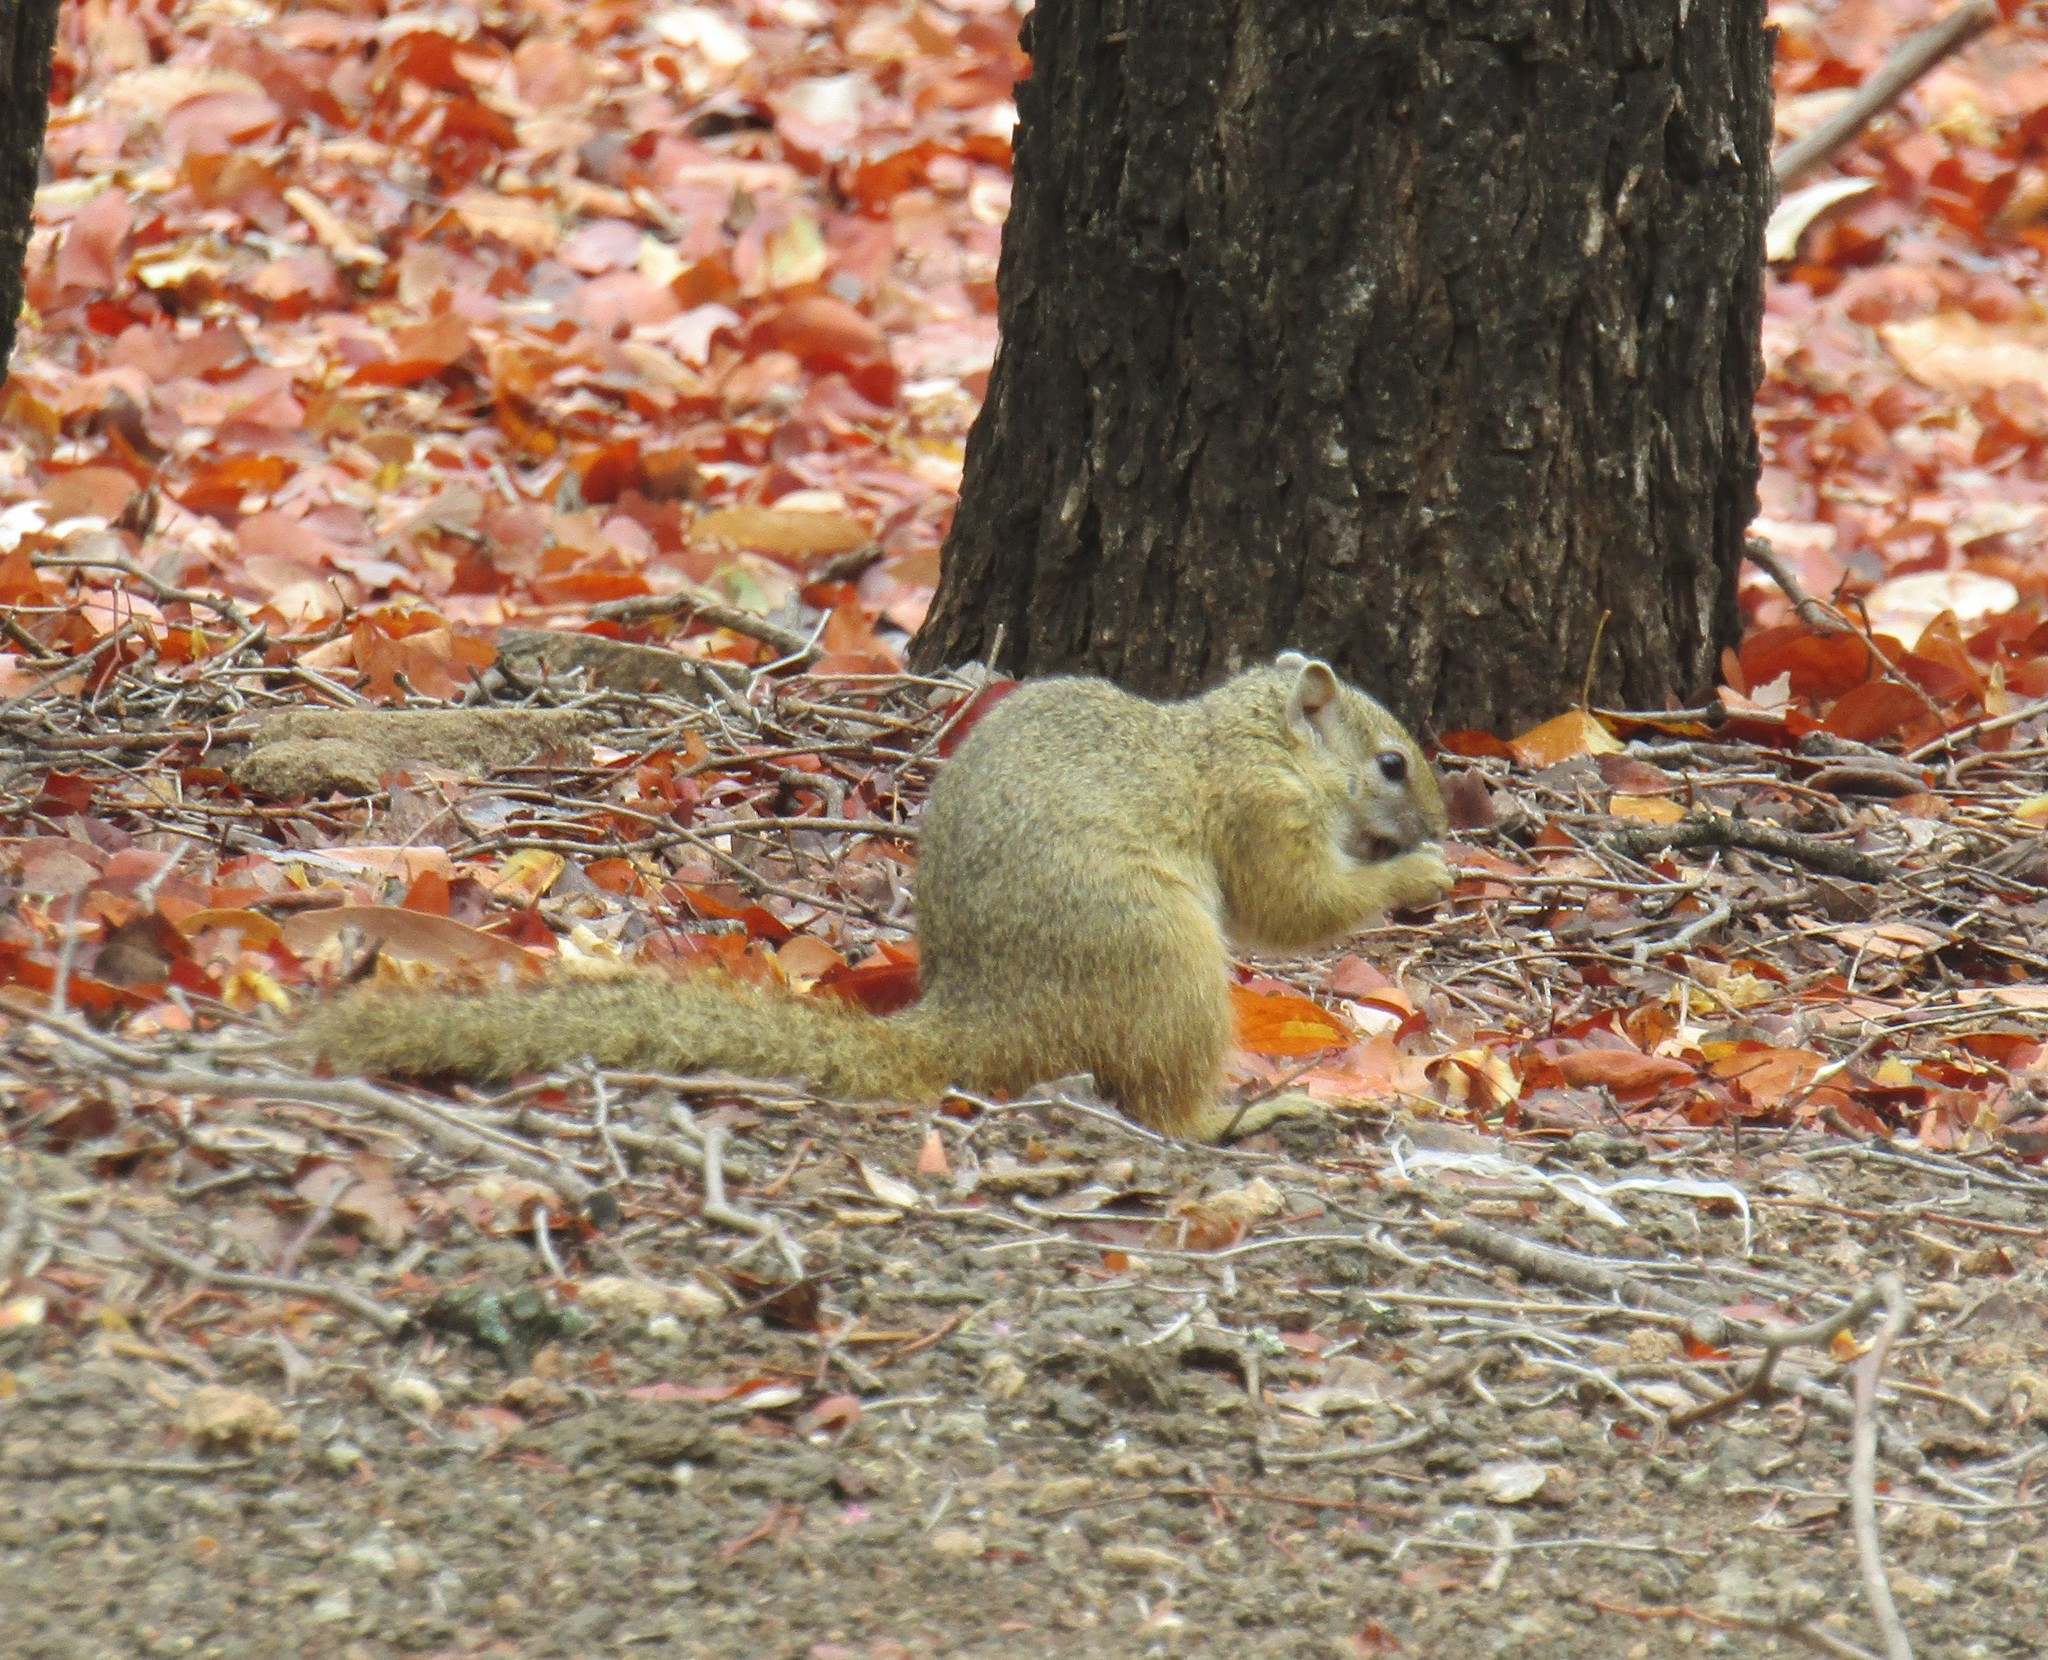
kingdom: Animalia
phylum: Chordata
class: Mammalia
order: Rodentia
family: Sciuridae
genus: Paraxerus
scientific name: Paraxerus cepapi
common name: Smith's bush squirrel
